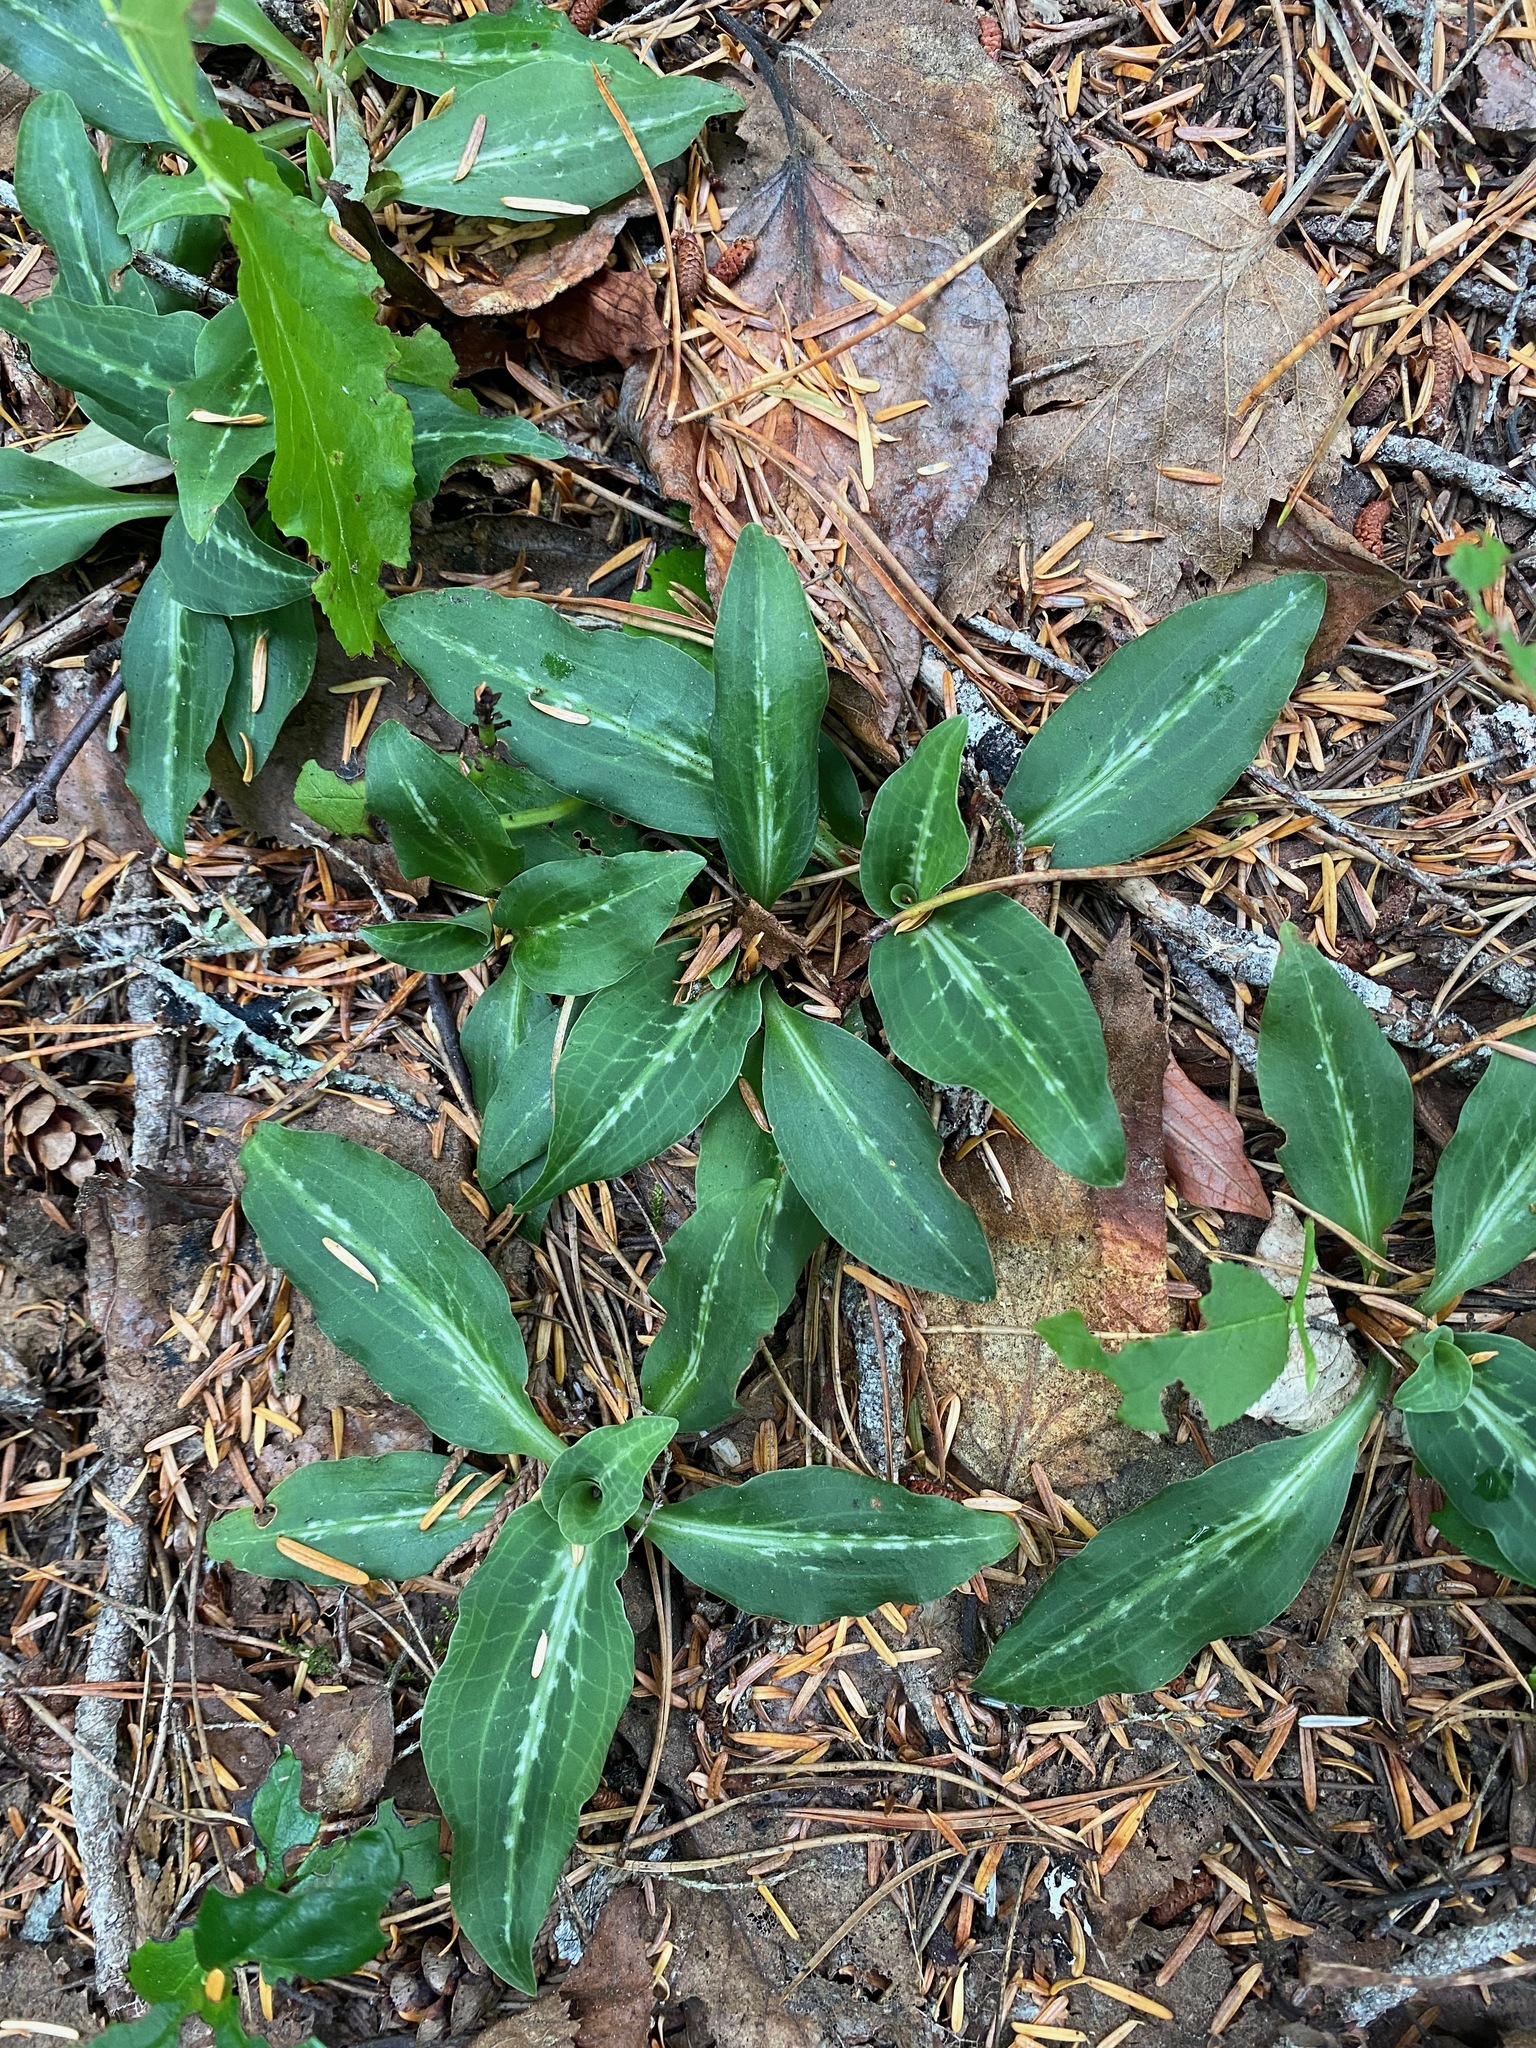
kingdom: Plantae
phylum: Tracheophyta
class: Liliopsida
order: Asparagales
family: Orchidaceae
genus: Goodyera
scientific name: Goodyera oblongifolia
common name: Giant rattlesnake-plantain
